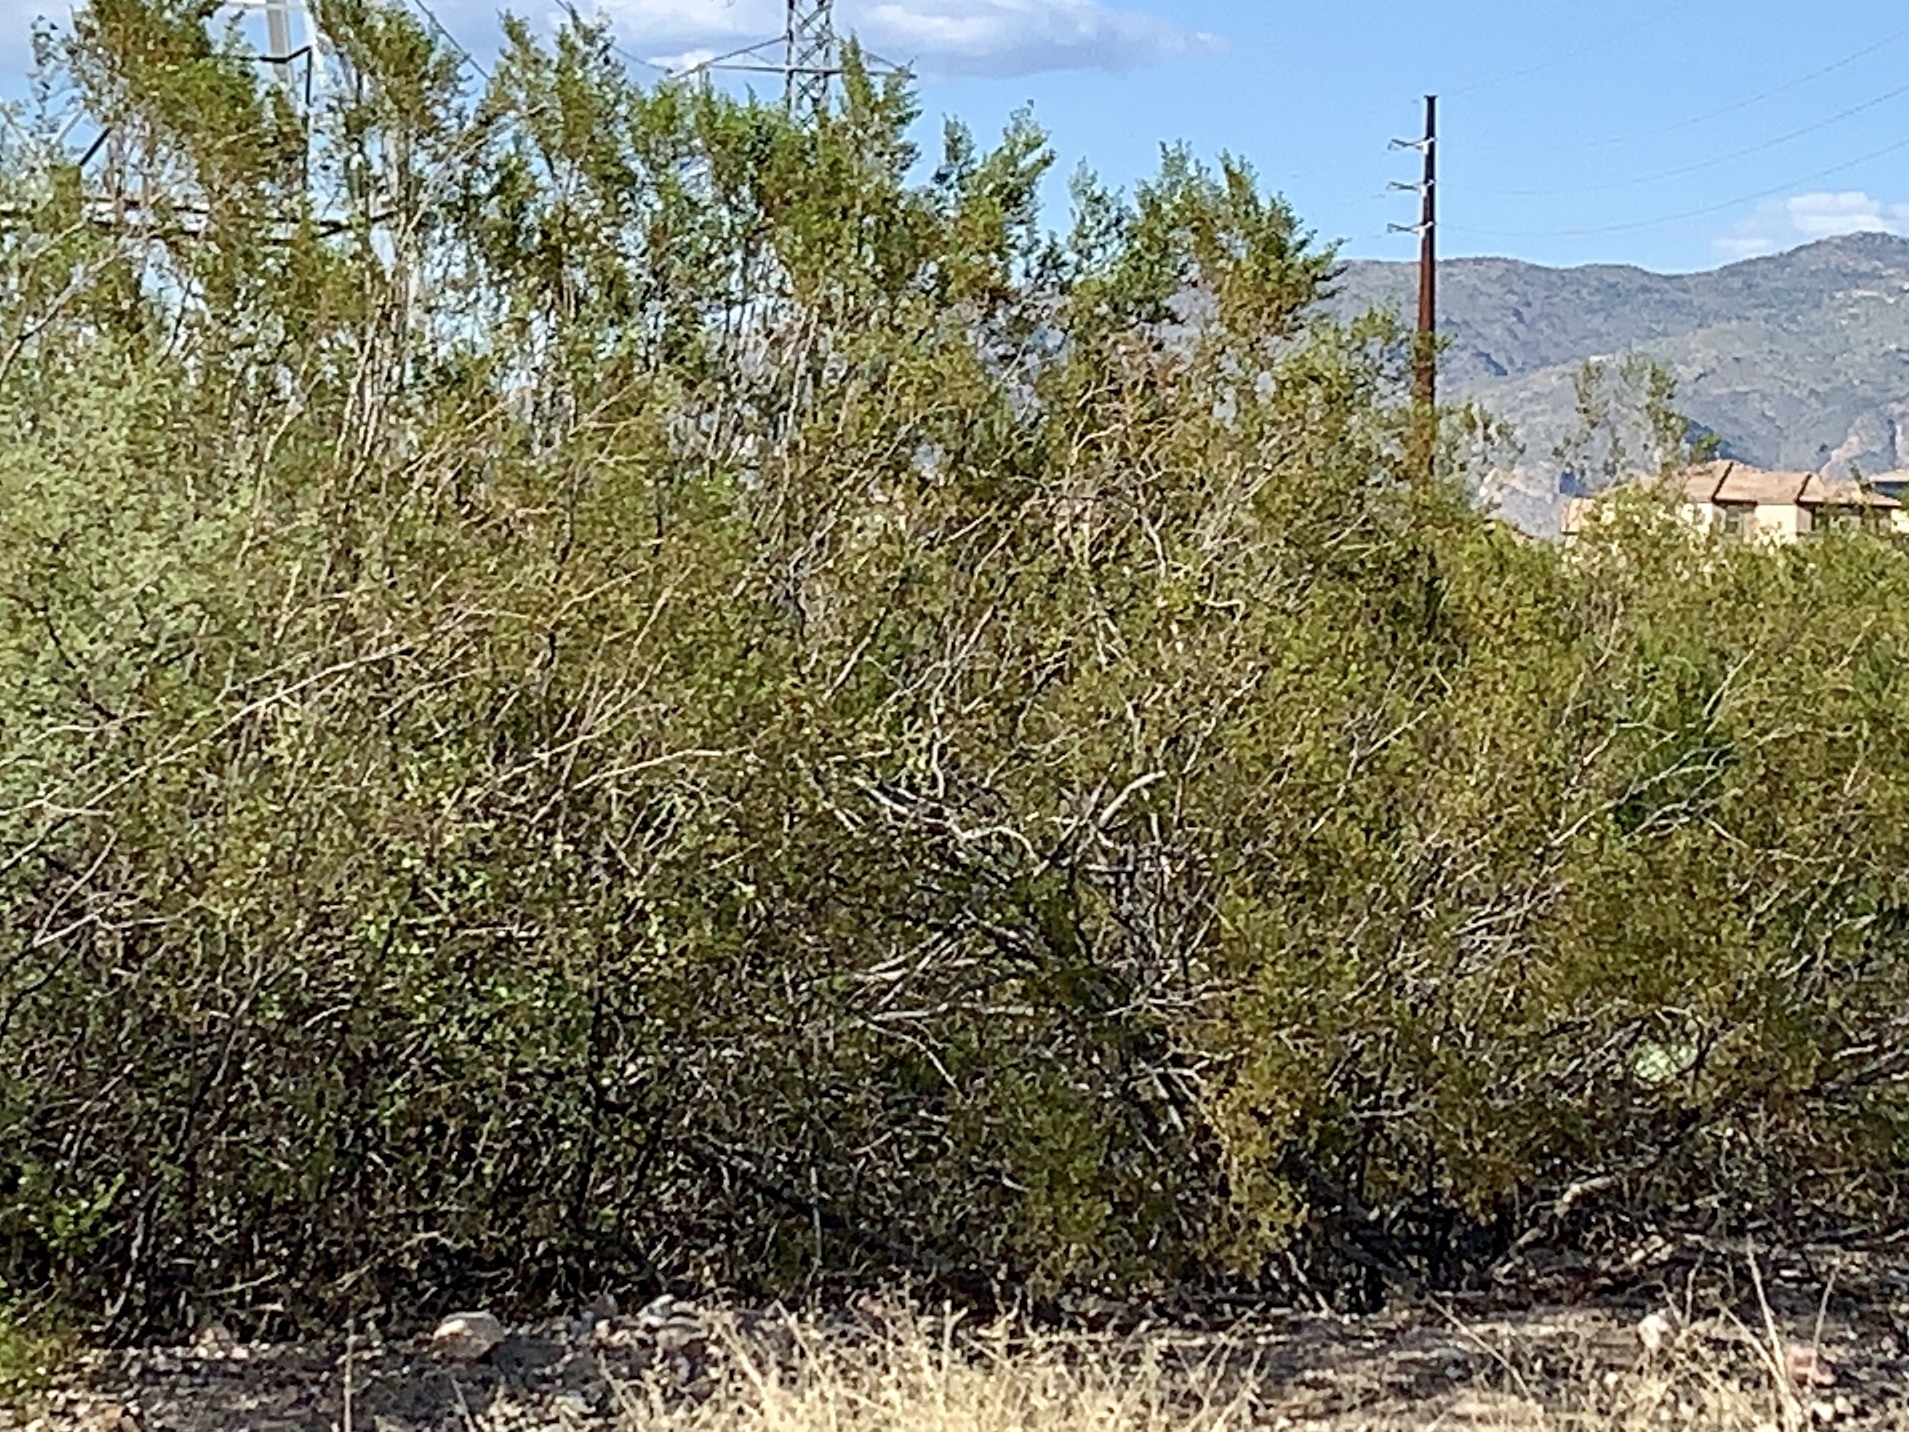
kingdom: Plantae
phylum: Tracheophyta
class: Magnoliopsida
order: Zygophyllales
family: Zygophyllaceae
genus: Larrea
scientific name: Larrea tridentata
